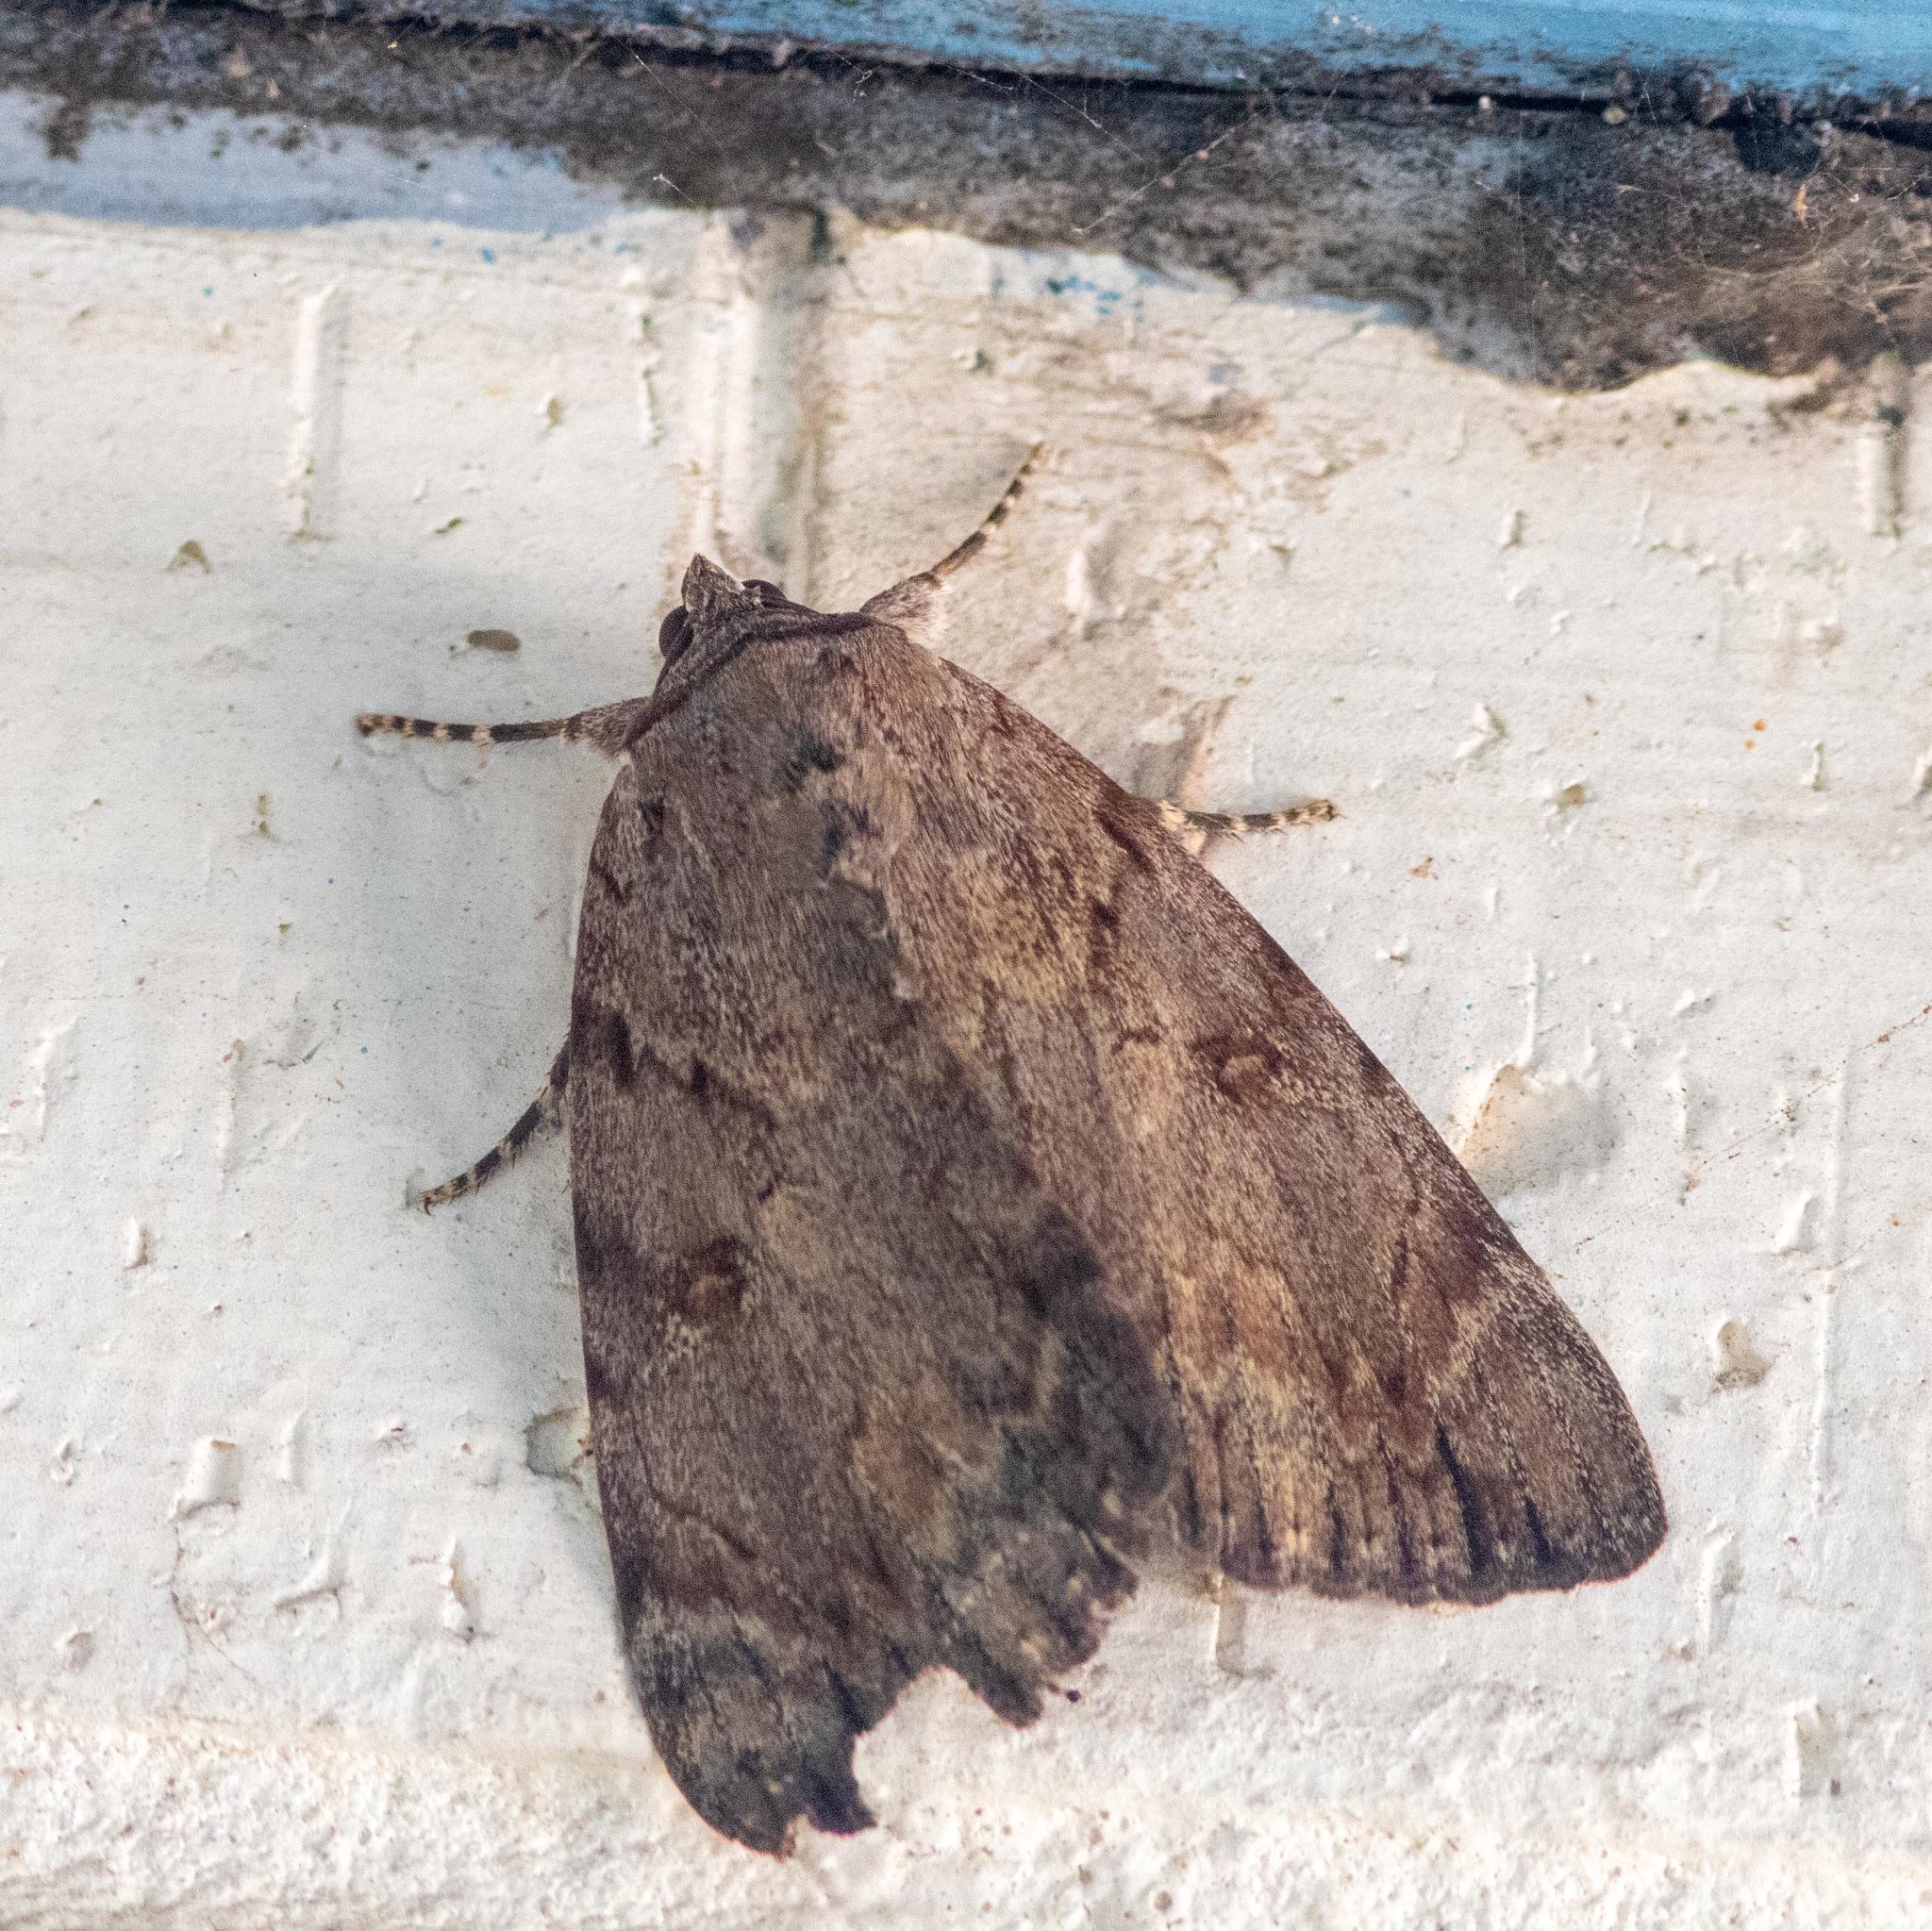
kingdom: Animalia
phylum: Arthropoda
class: Insecta
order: Lepidoptera
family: Erebidae
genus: Catocala
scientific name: Catocala agrippina
